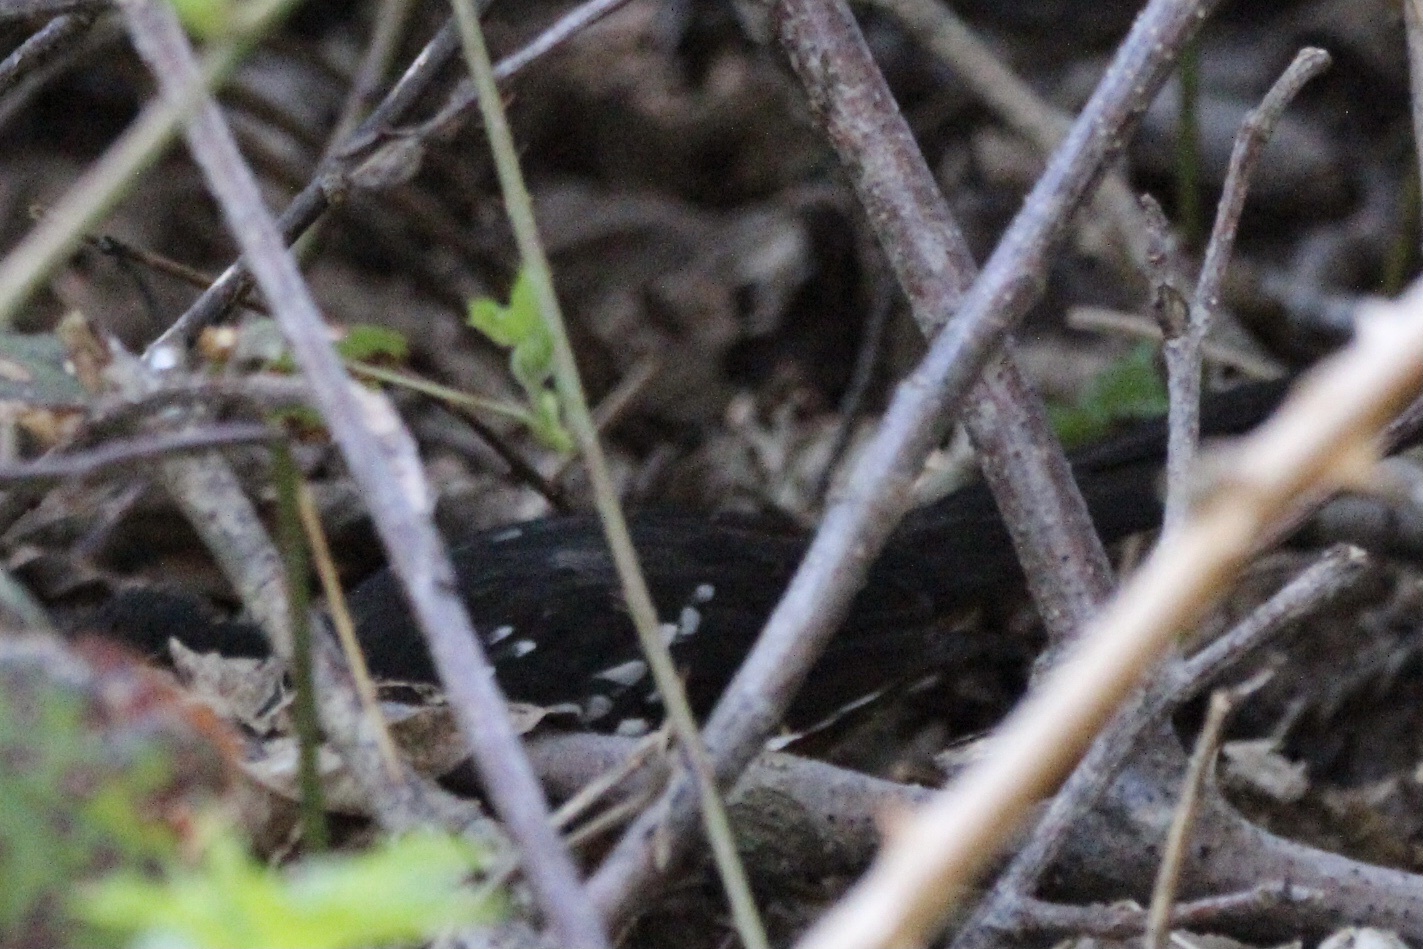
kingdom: Animalia
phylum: Chordata
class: Aves
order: Passeriformes
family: Passerellidae
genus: Pipilo
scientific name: Pipilo maculatus
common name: Spotted towhee
